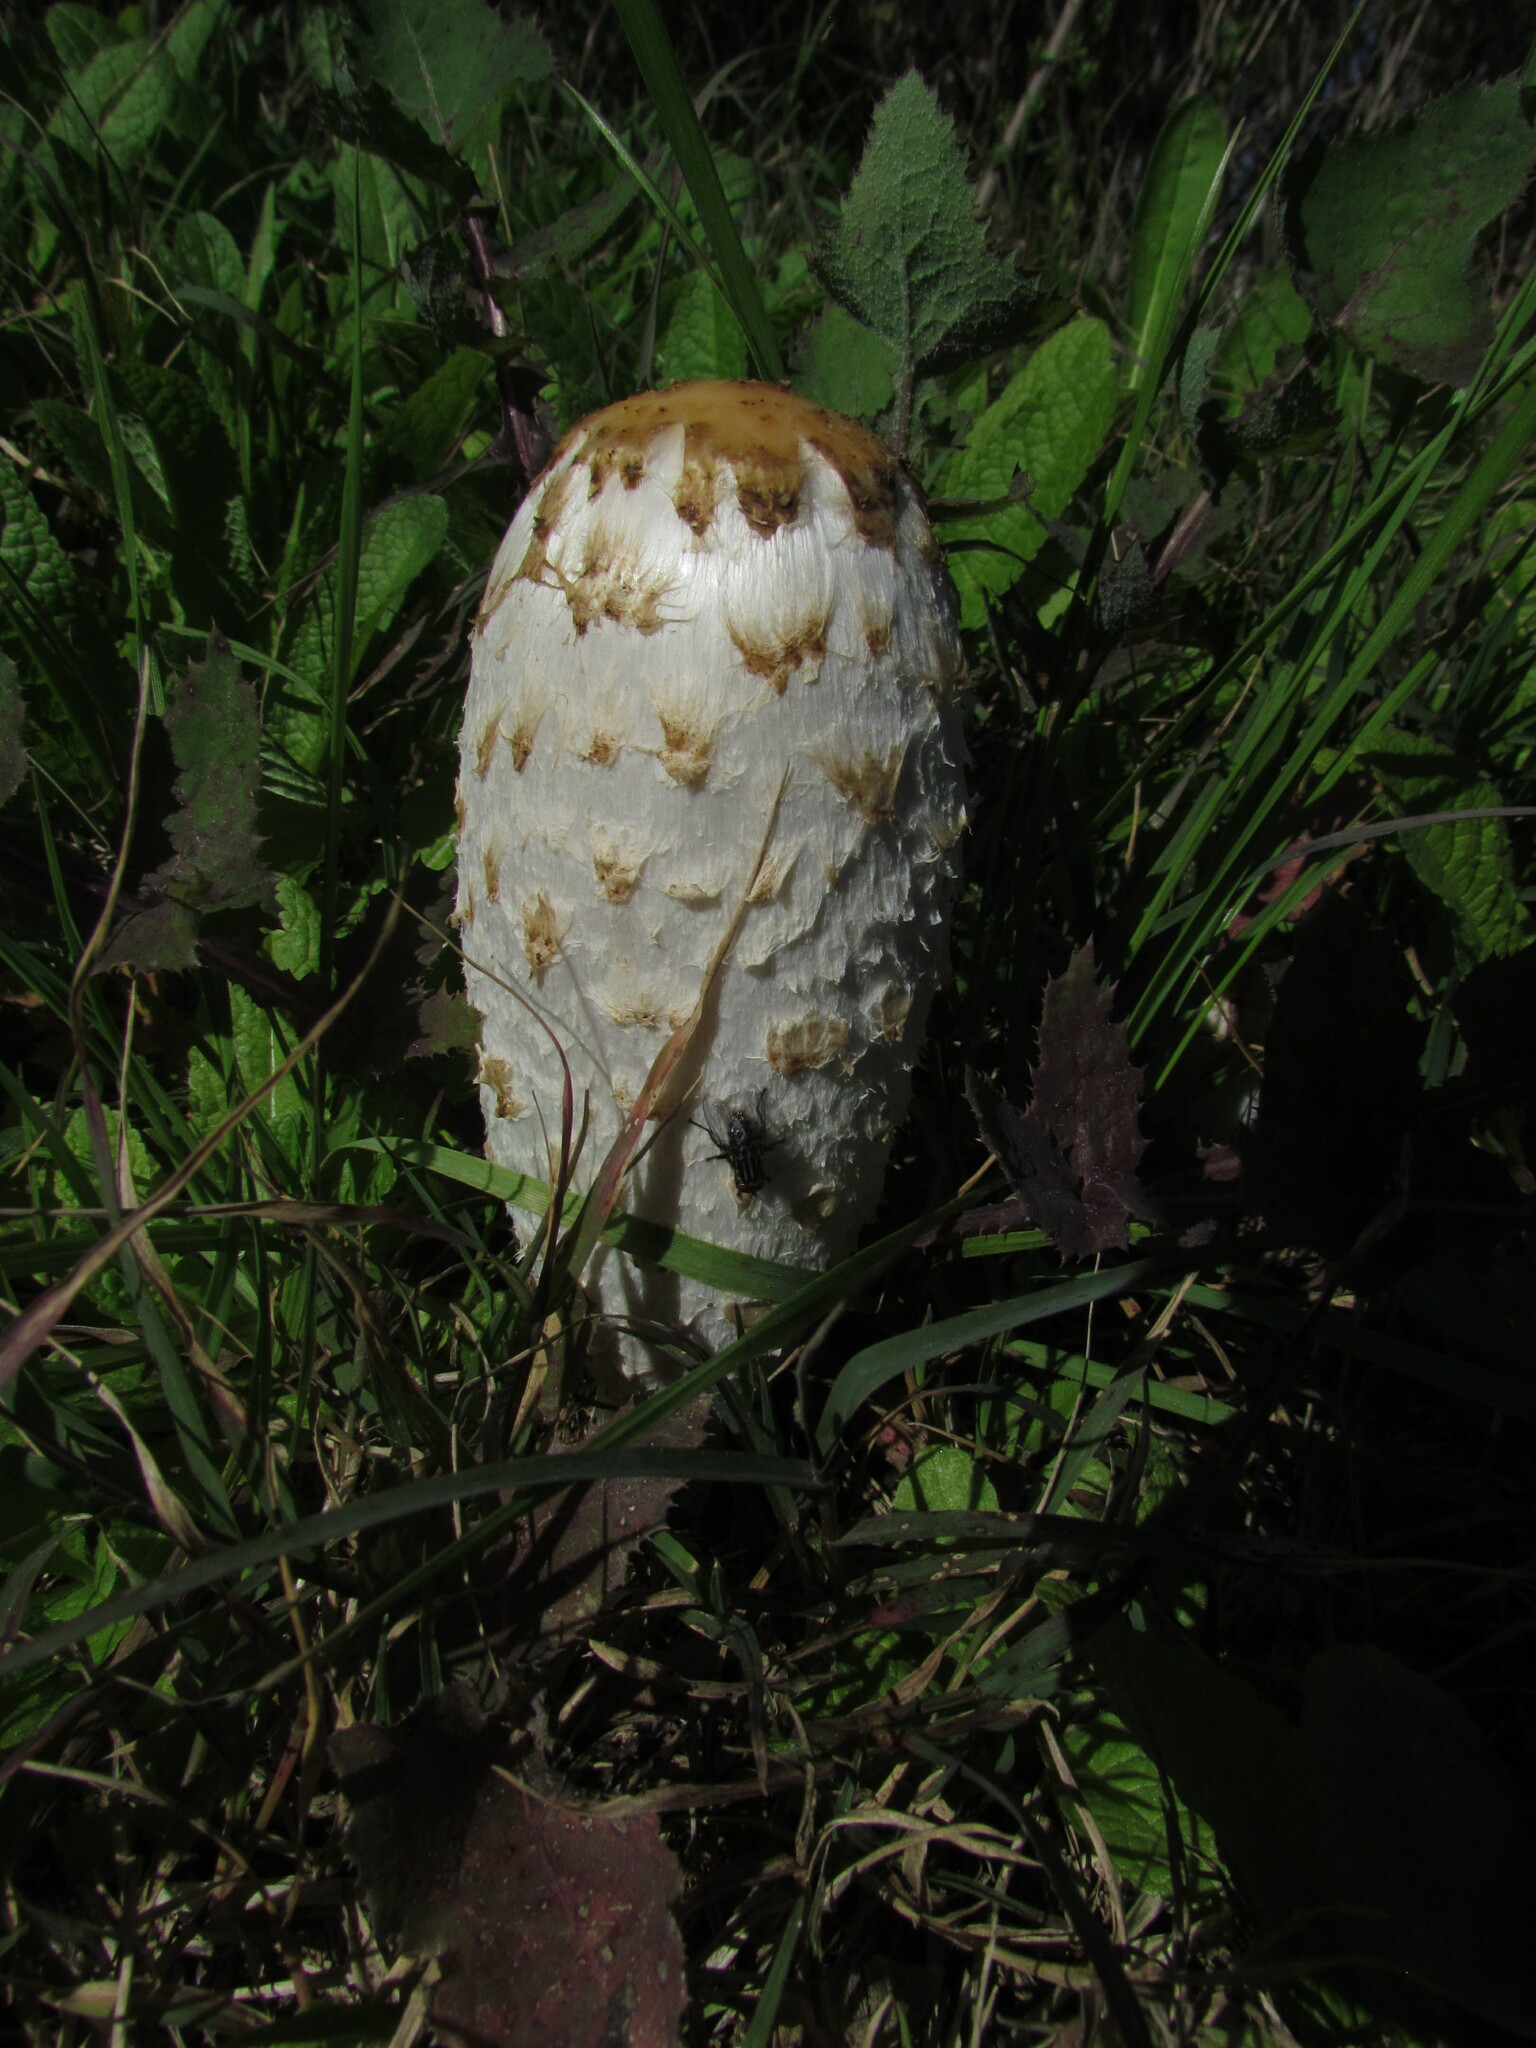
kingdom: Fungi
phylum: Basidiomycota
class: Agaricomycetes
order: Agaricales
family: Agaricaceae
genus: Coprinus
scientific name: Coprinus comatus
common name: Lawyer's wig
